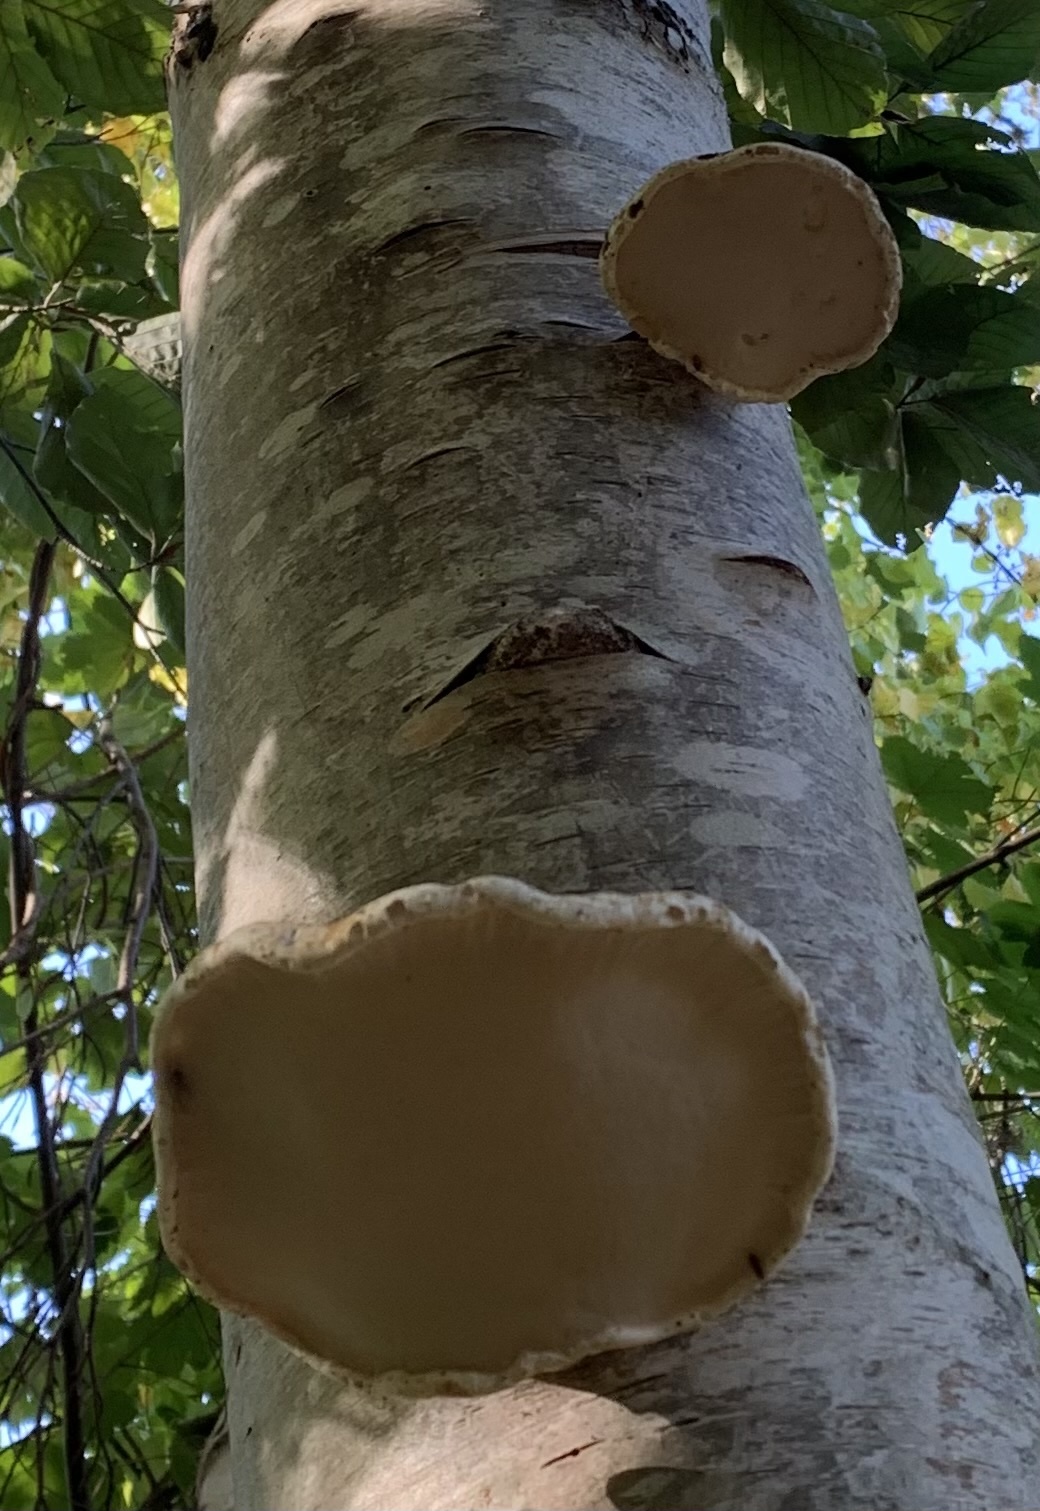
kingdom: Fungi
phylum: Basidiomycota
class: Agaricomycetes
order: Polyporales
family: Fomitopsidaceae
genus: Fomitopsis
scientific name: Fomitopsis betulina
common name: Birch polypore
